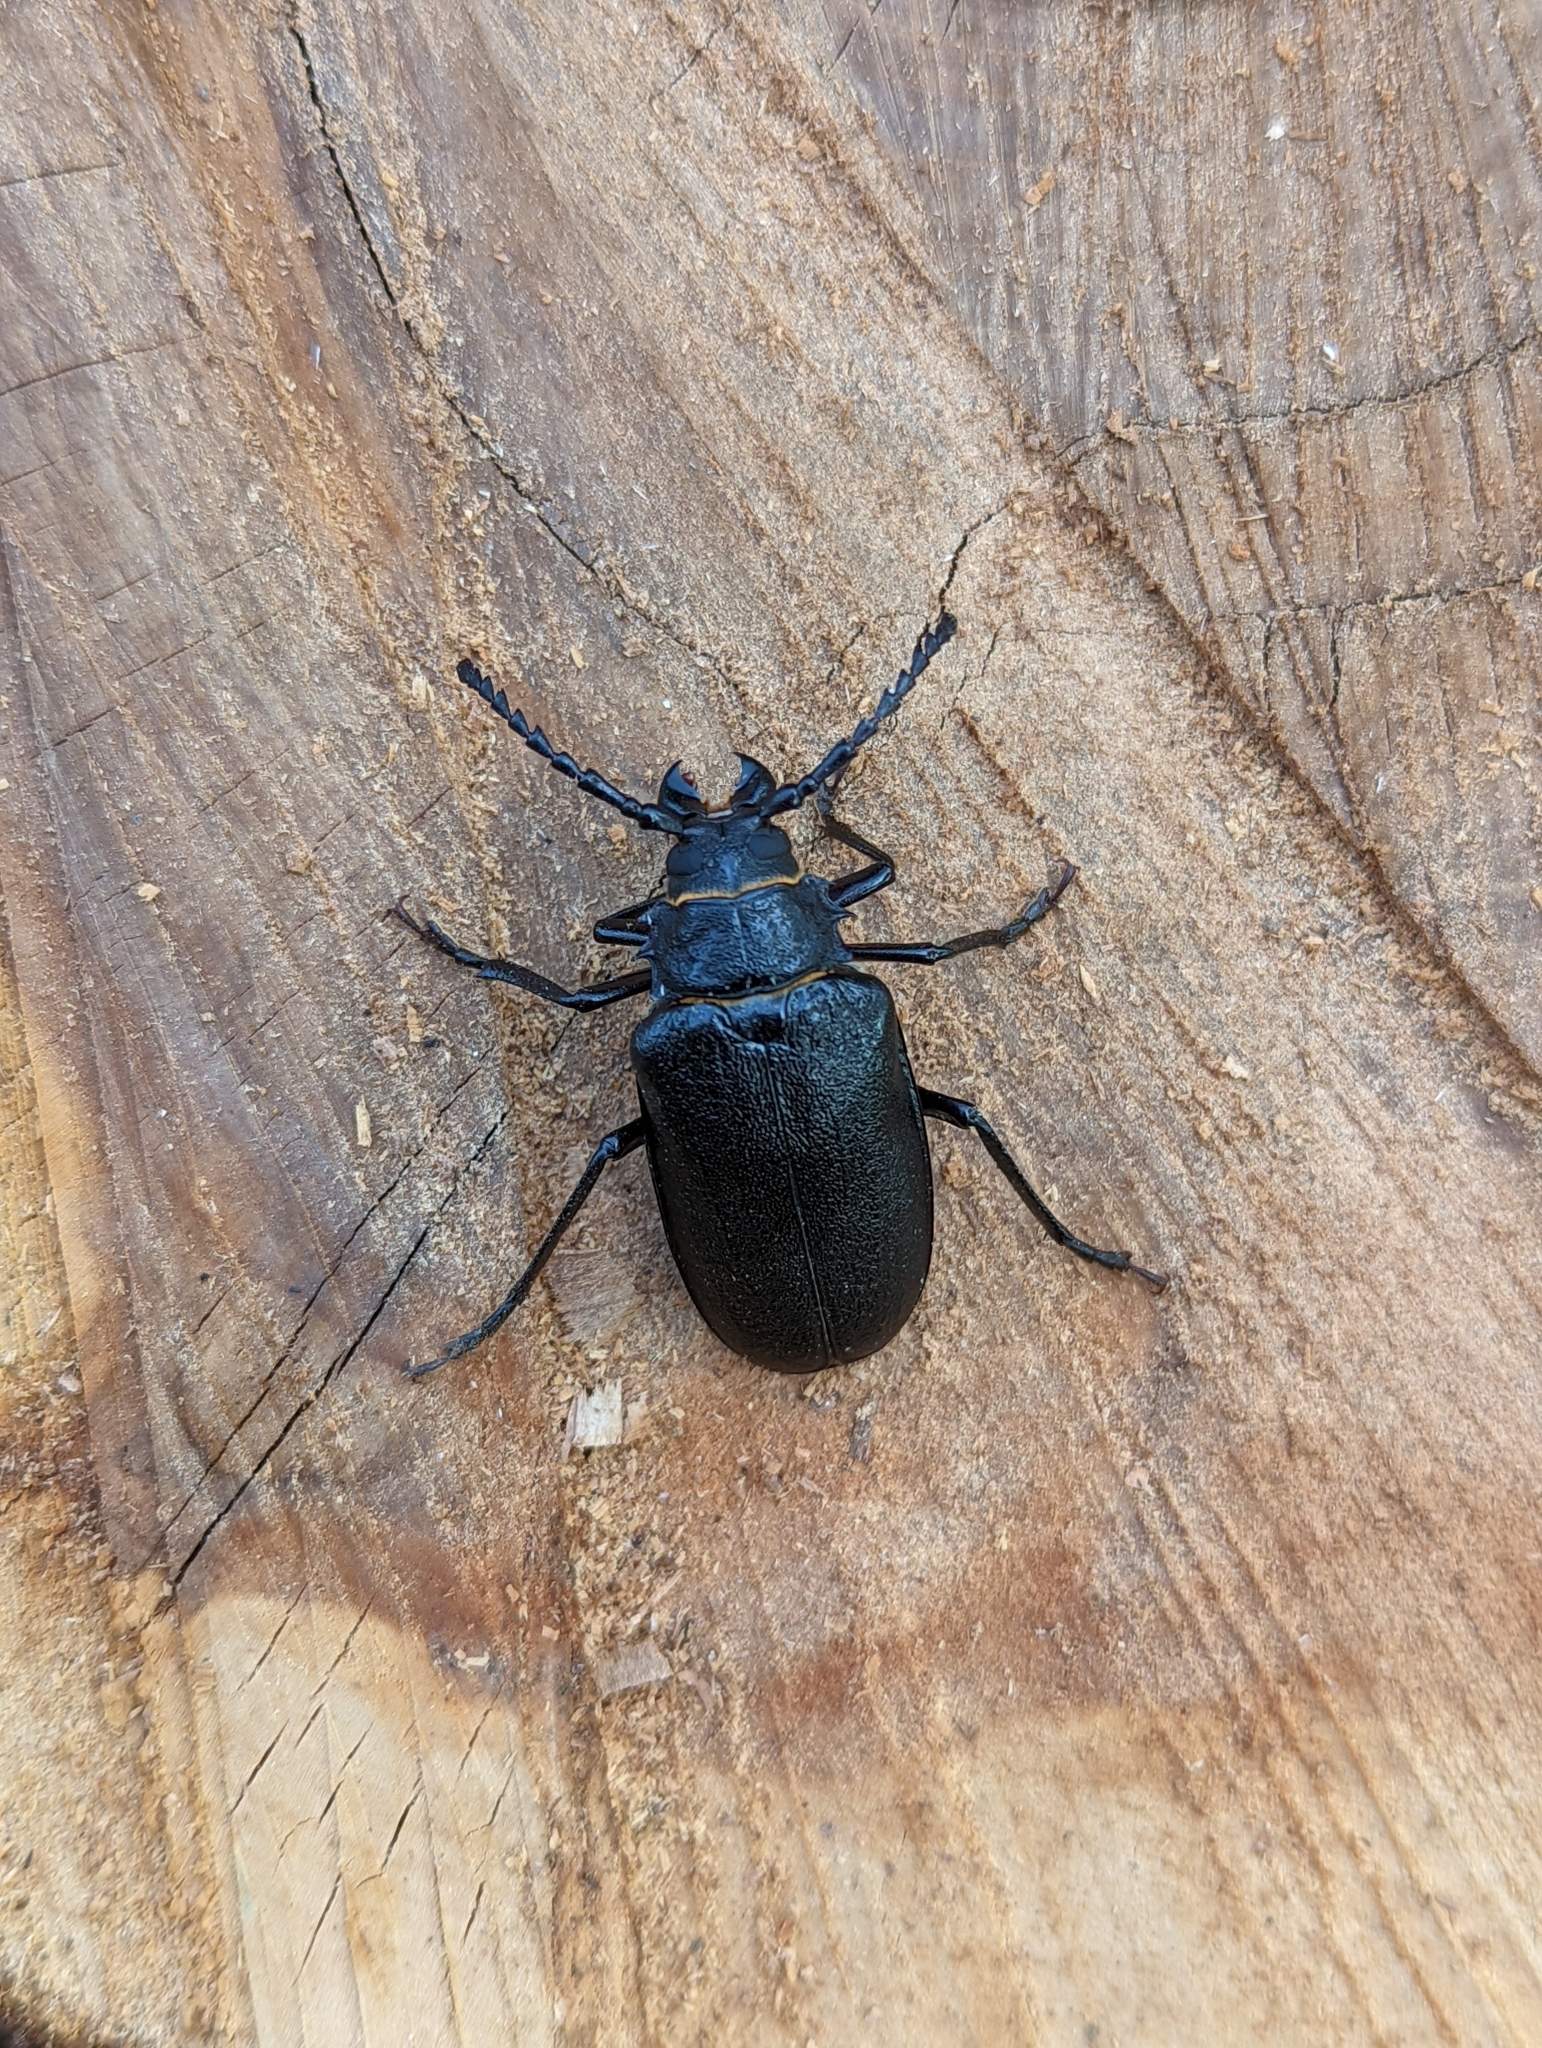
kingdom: Animalia
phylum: Arthropoda
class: Insecta
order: Coleoptera
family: Cerambycidae
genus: Prionus
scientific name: Prionus coriarius
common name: Tanner beetle
